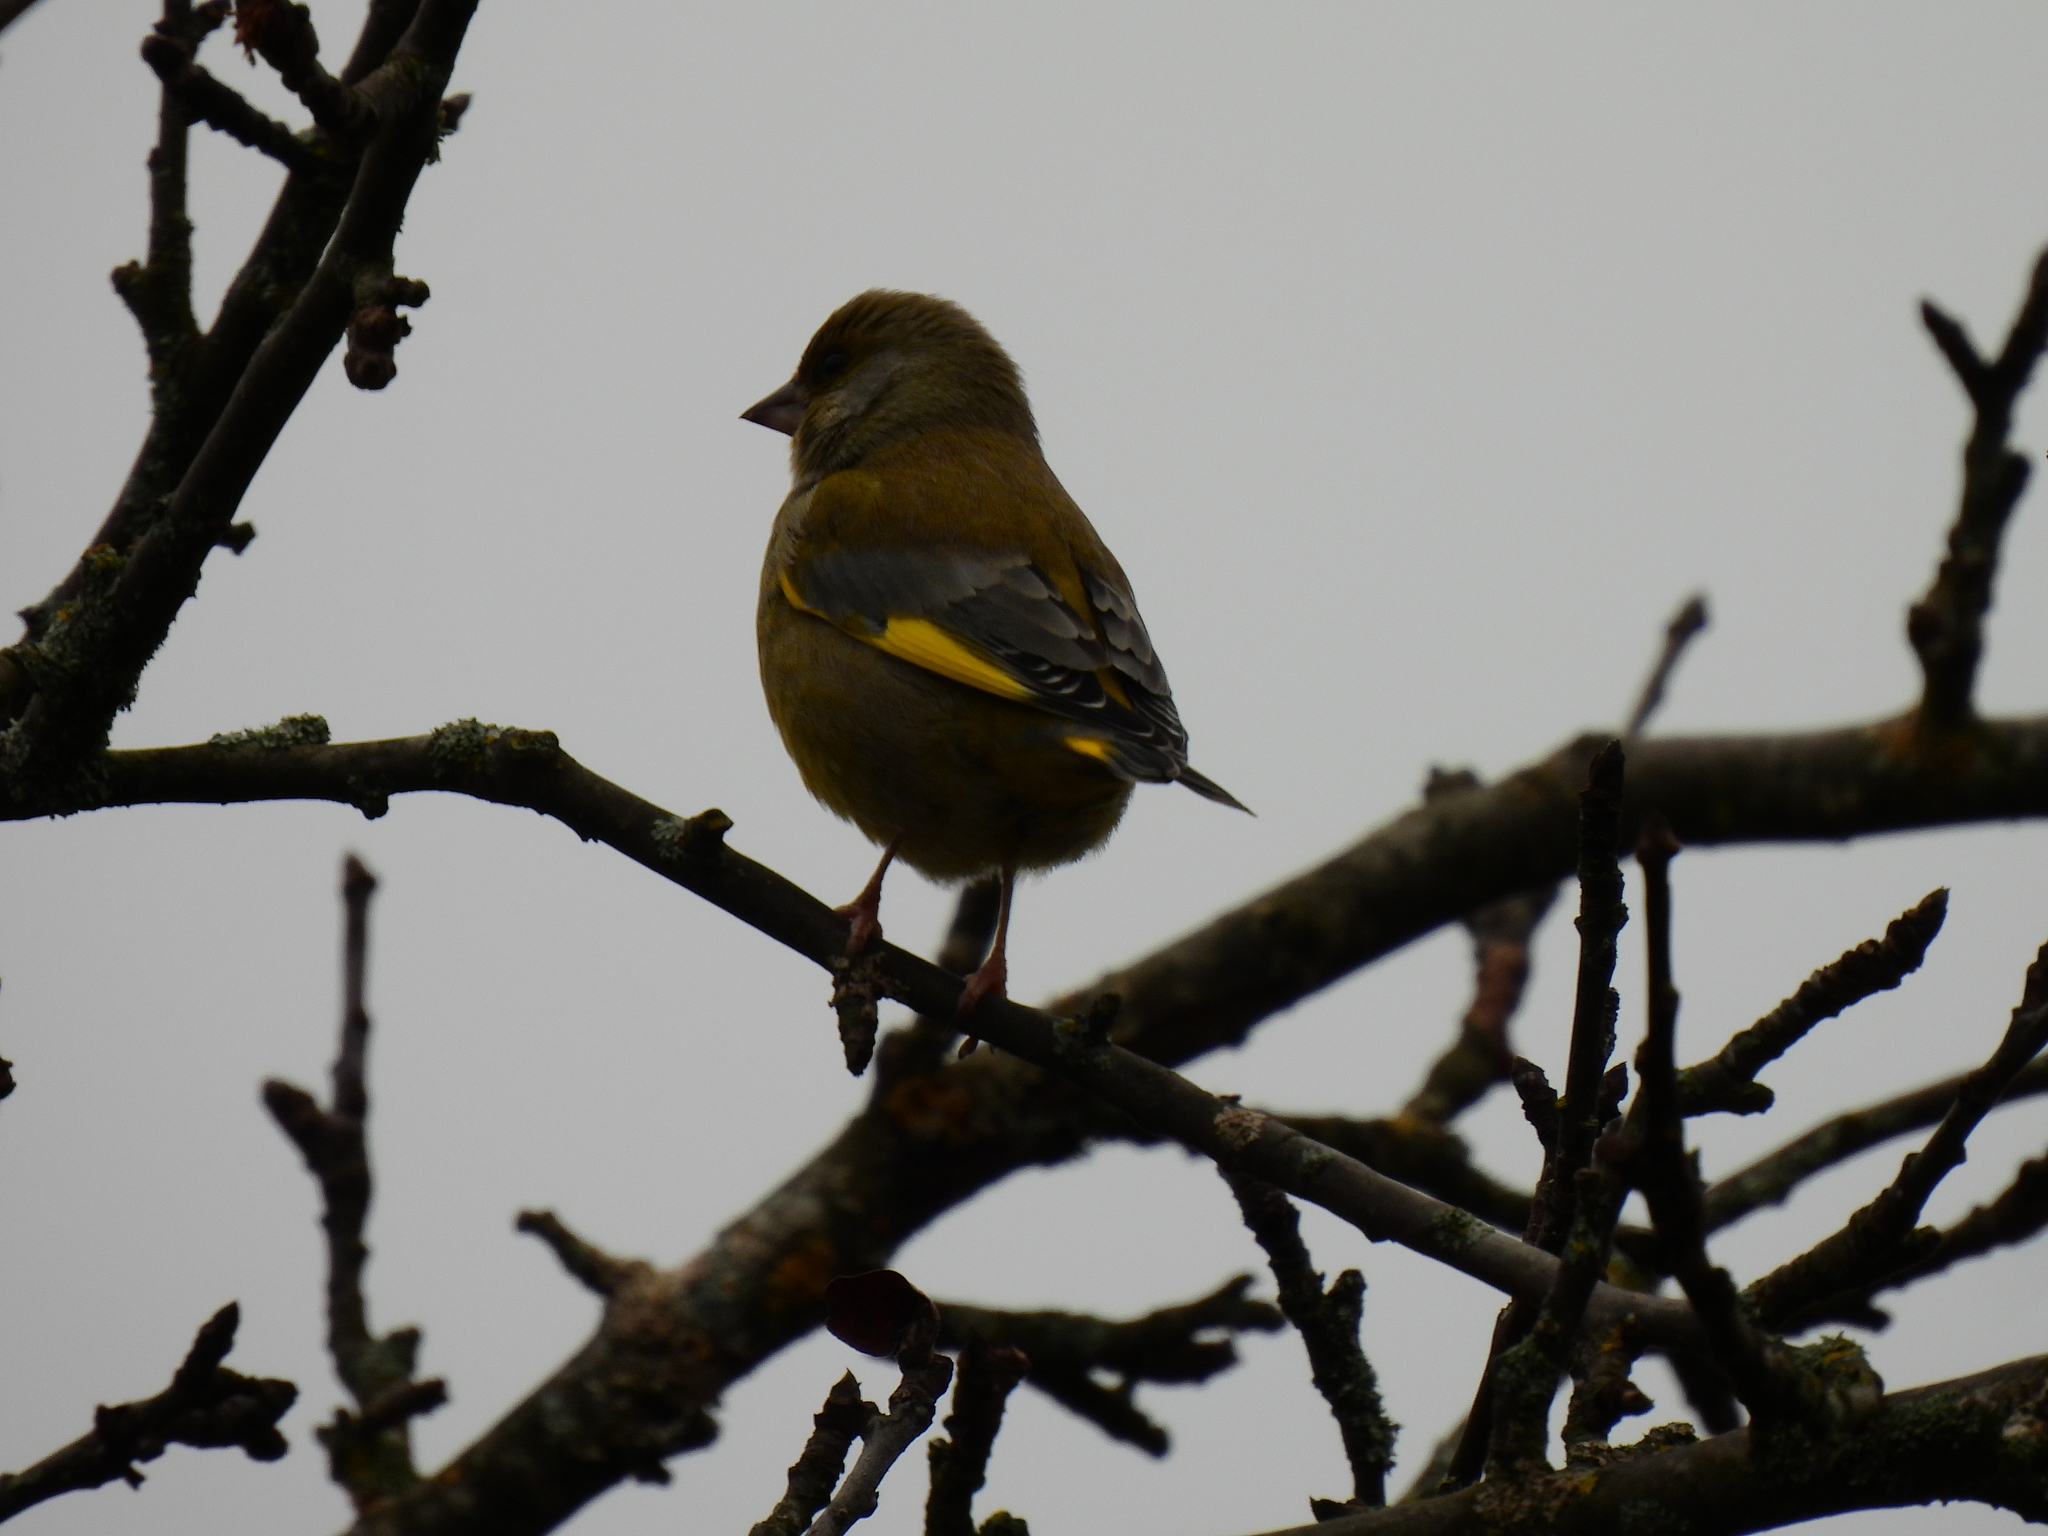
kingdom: Plantae
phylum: Tracheophyta
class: Liliopsida
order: Poales
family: Poaceae
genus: Chloris
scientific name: Chloris chloris
